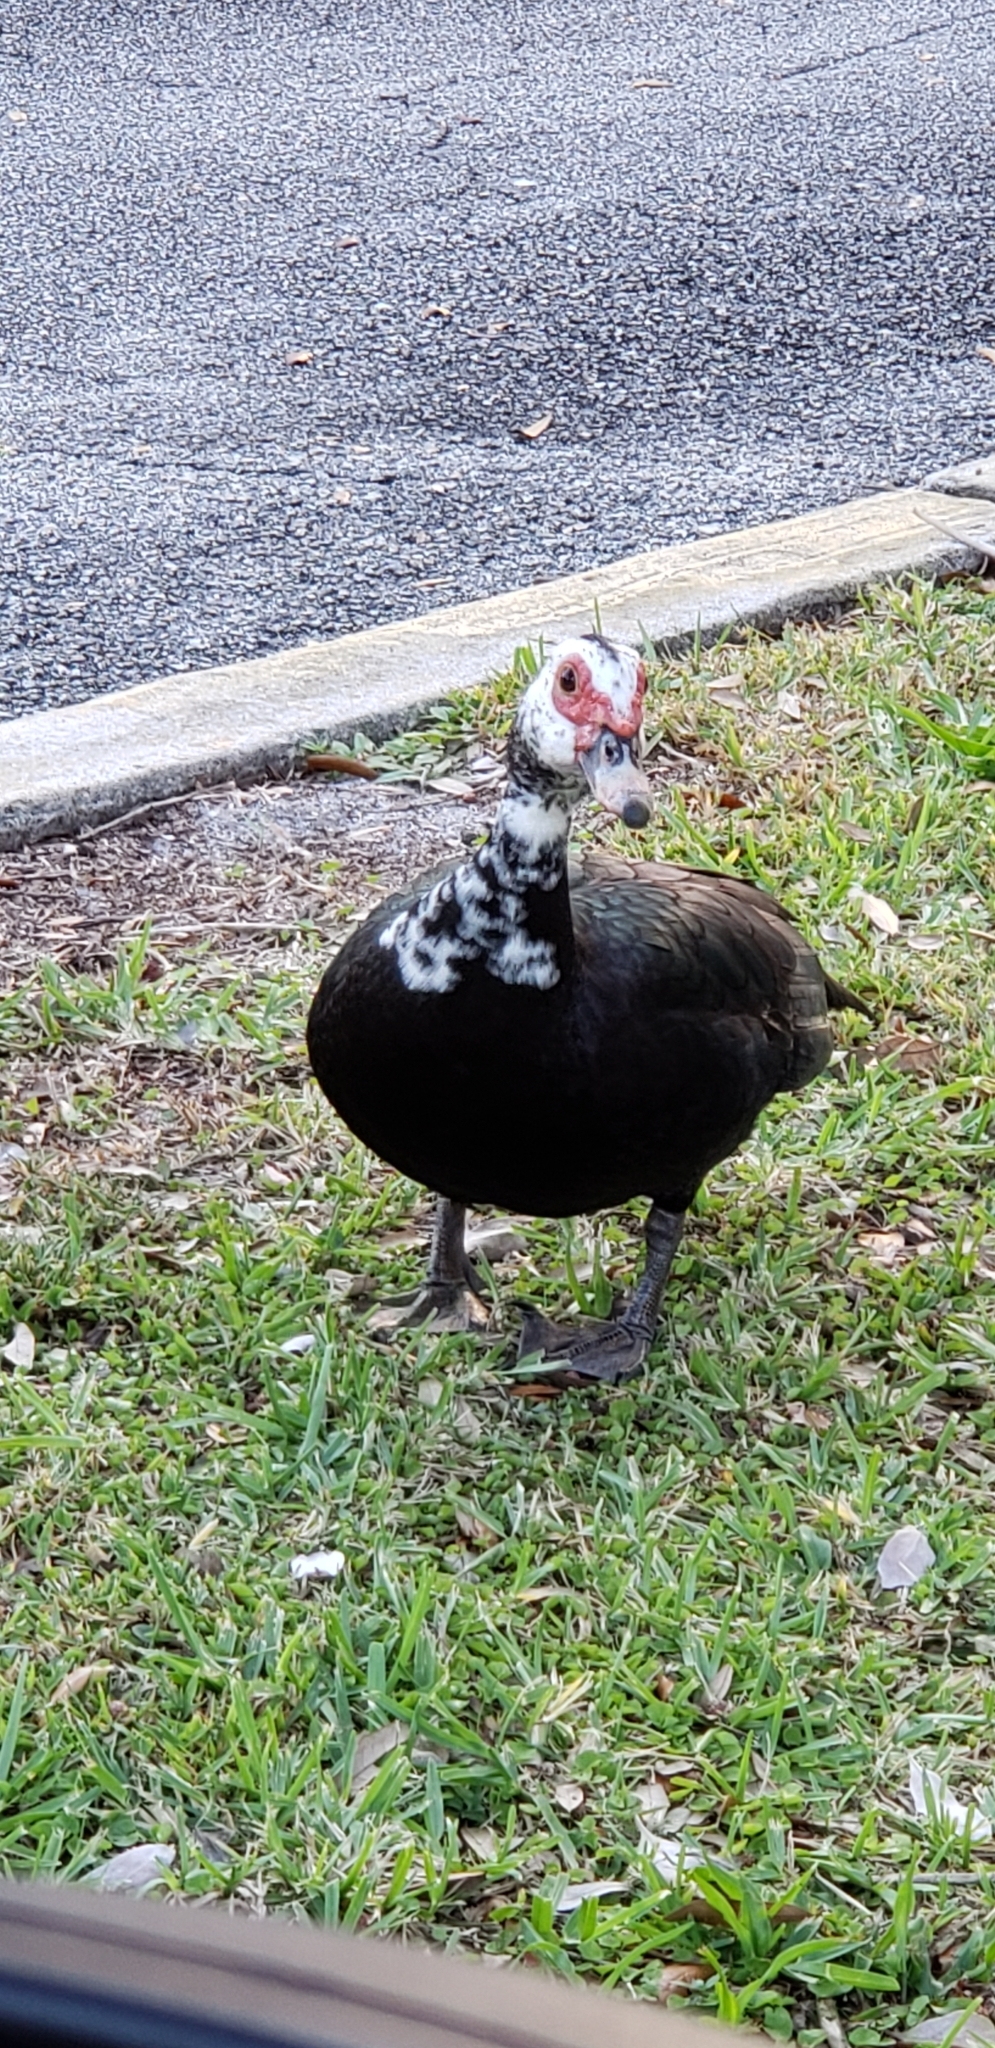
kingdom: Animalia
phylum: Chordata
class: Aves
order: Anseriformes
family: Anatidae
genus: Cairina
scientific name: Cairina moschata
